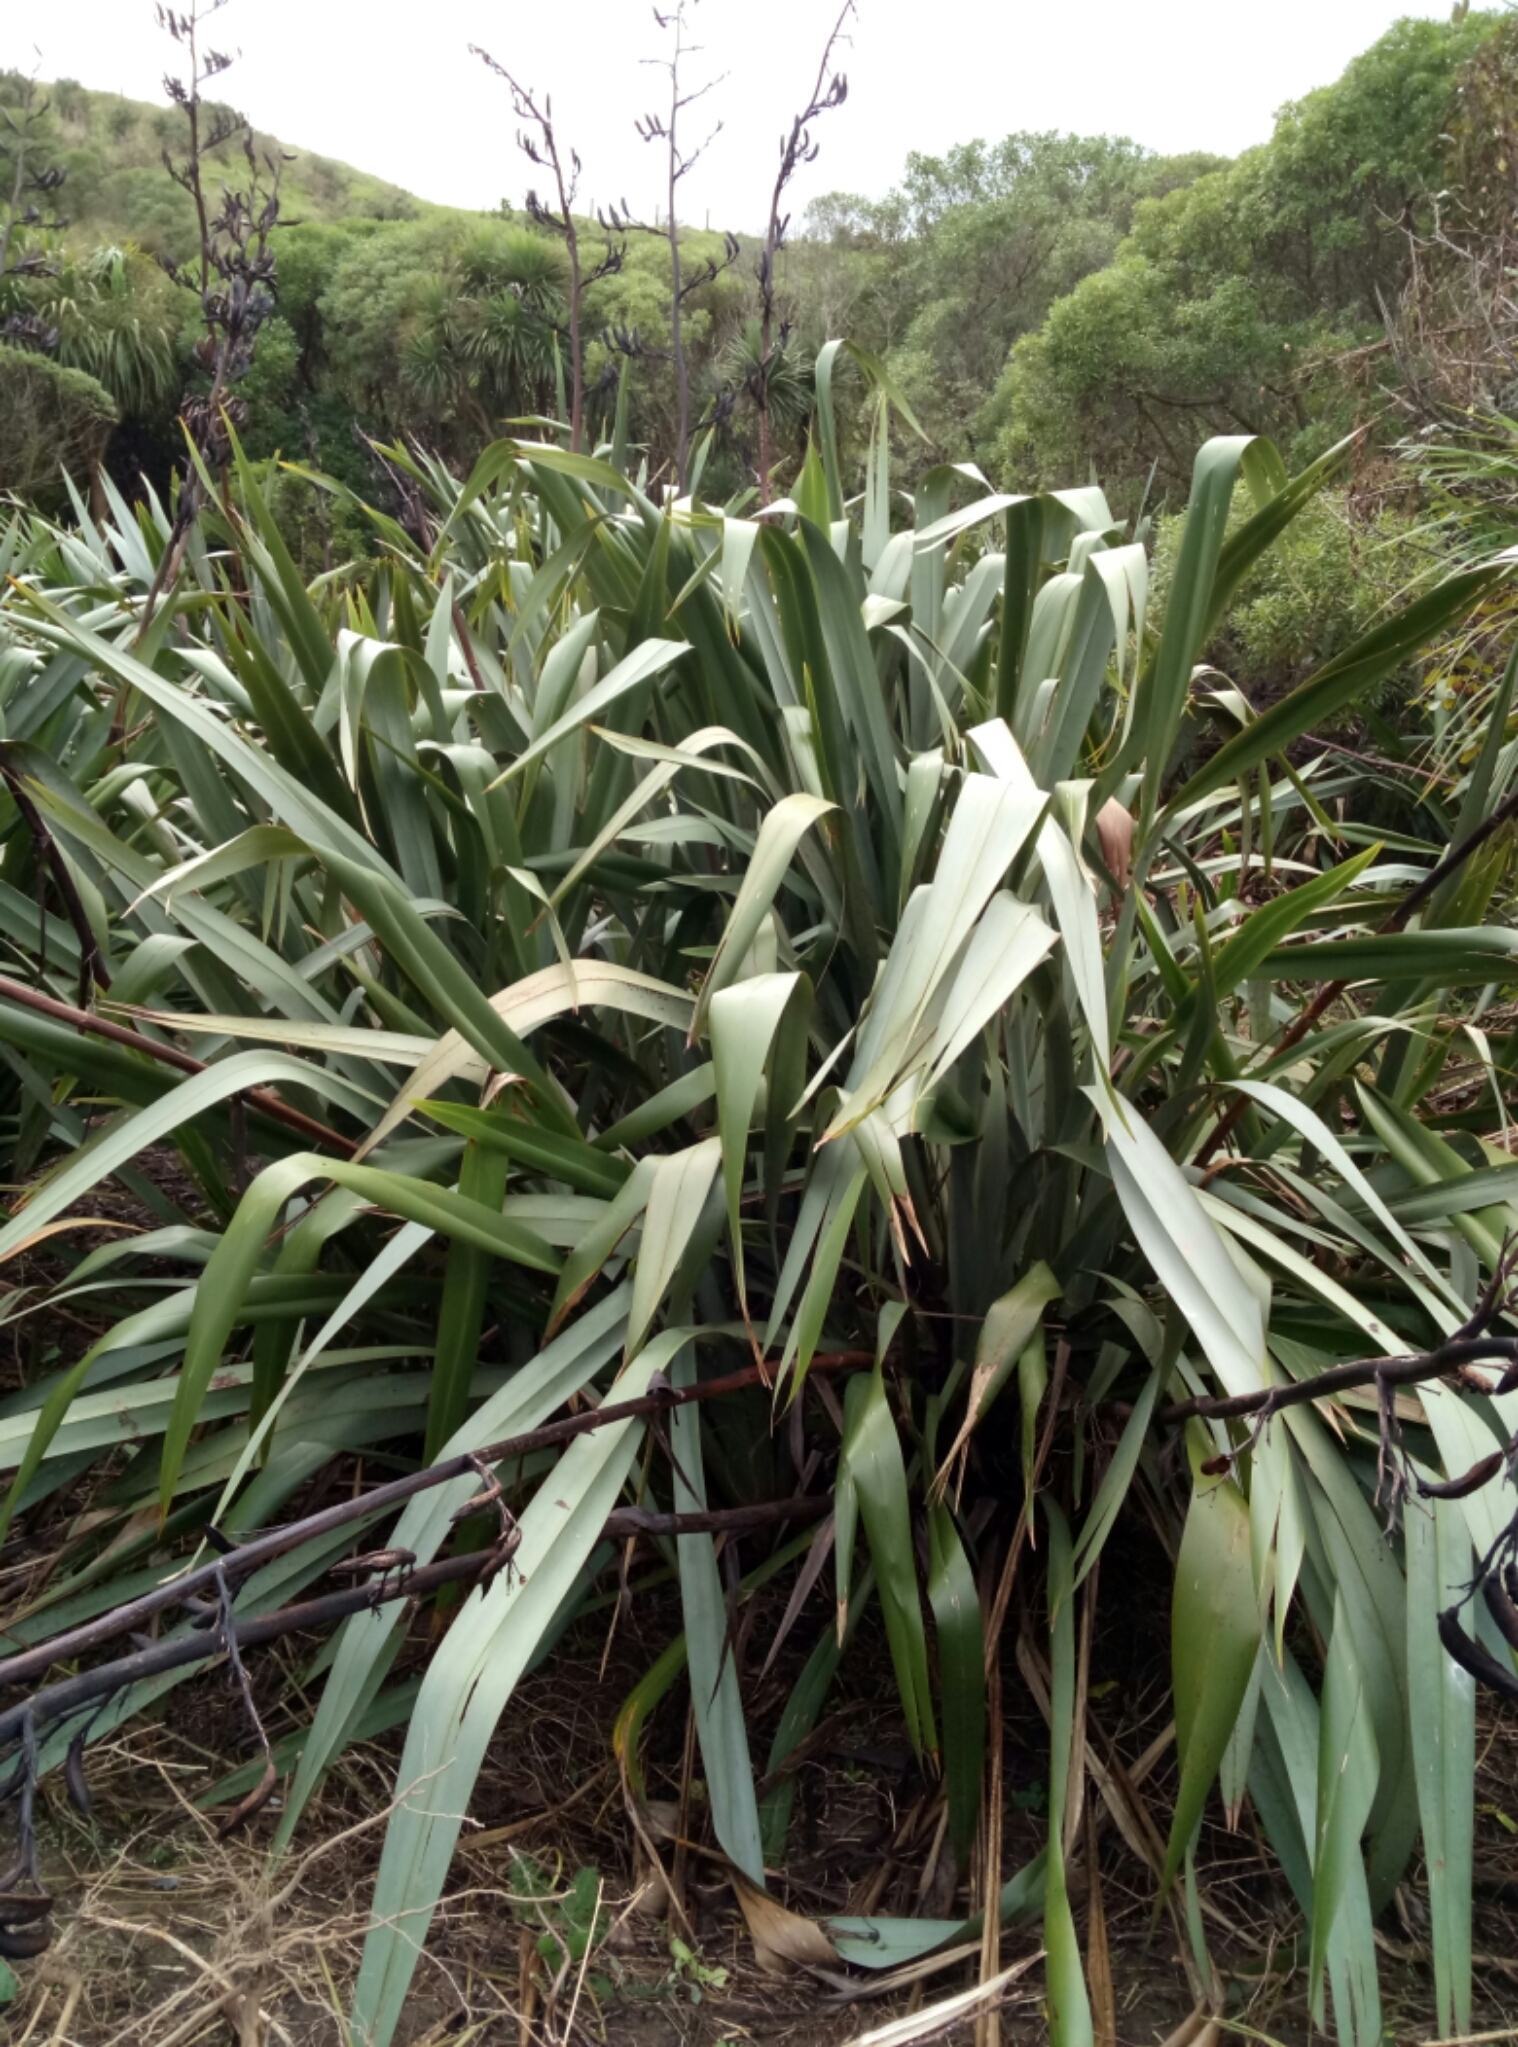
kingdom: Plantae
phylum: Tracheophyta
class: Liliopsida
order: Asparagales
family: Asphodelaceae
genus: Phormium
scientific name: Phormium tenax
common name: New zealand flax
